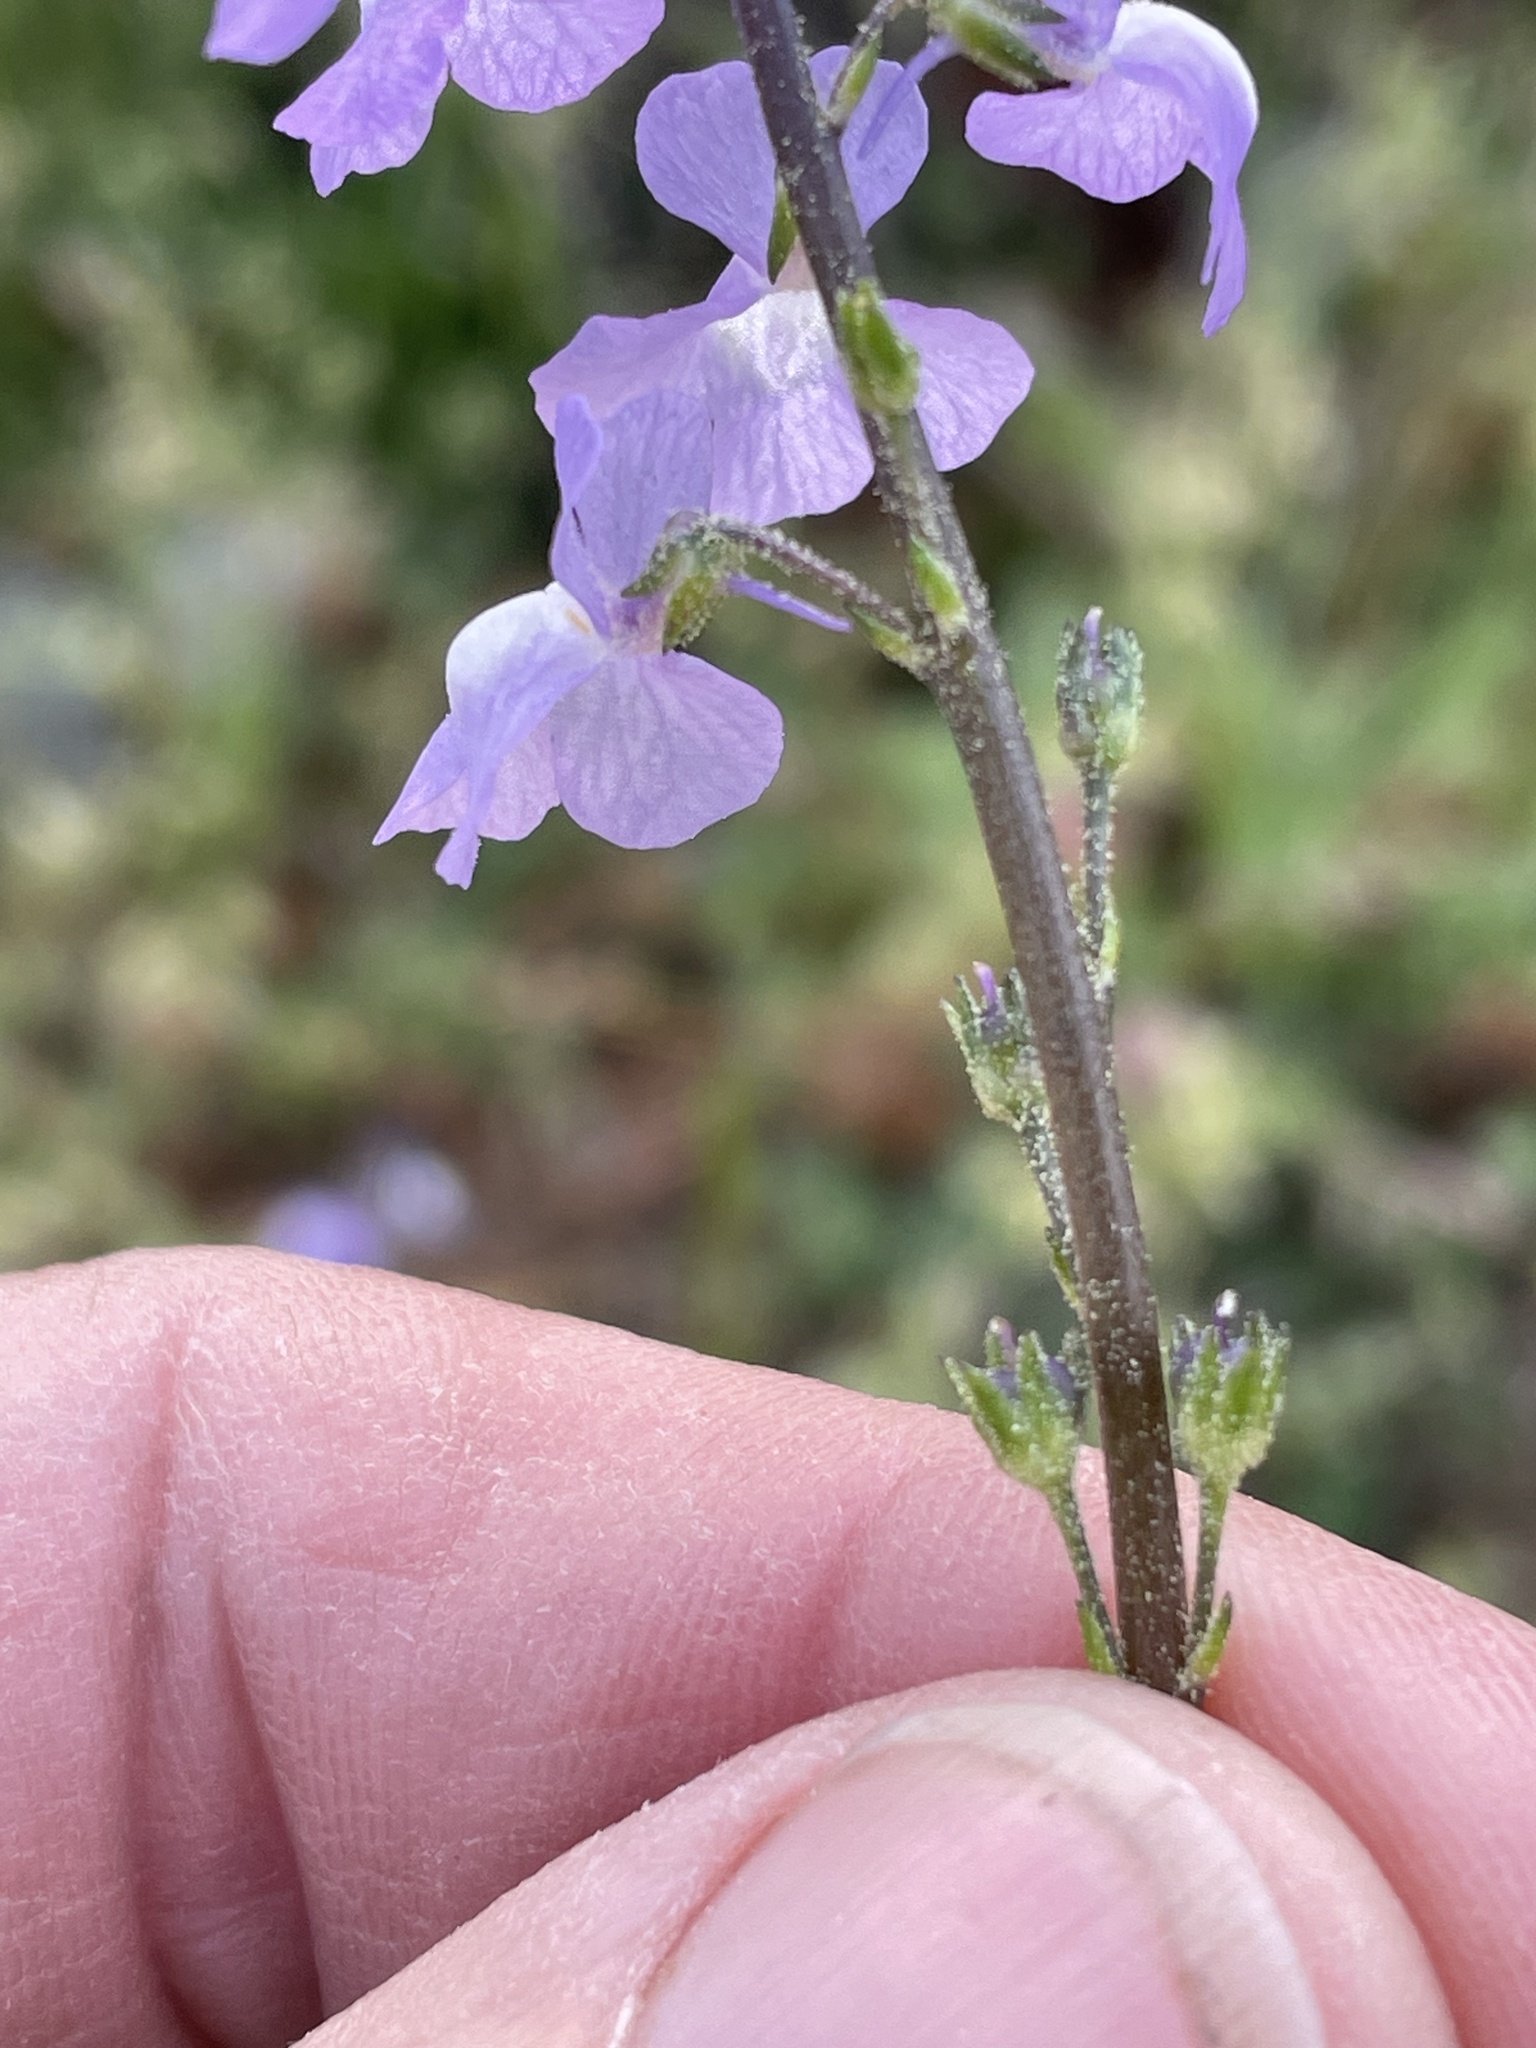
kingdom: Plantae
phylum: Tracheophyta
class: Magnoliopsida
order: Lamiales
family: Plantaginaceae
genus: Nuttallanthus
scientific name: Nuttallanthus canadensis
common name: Blue toadflax
